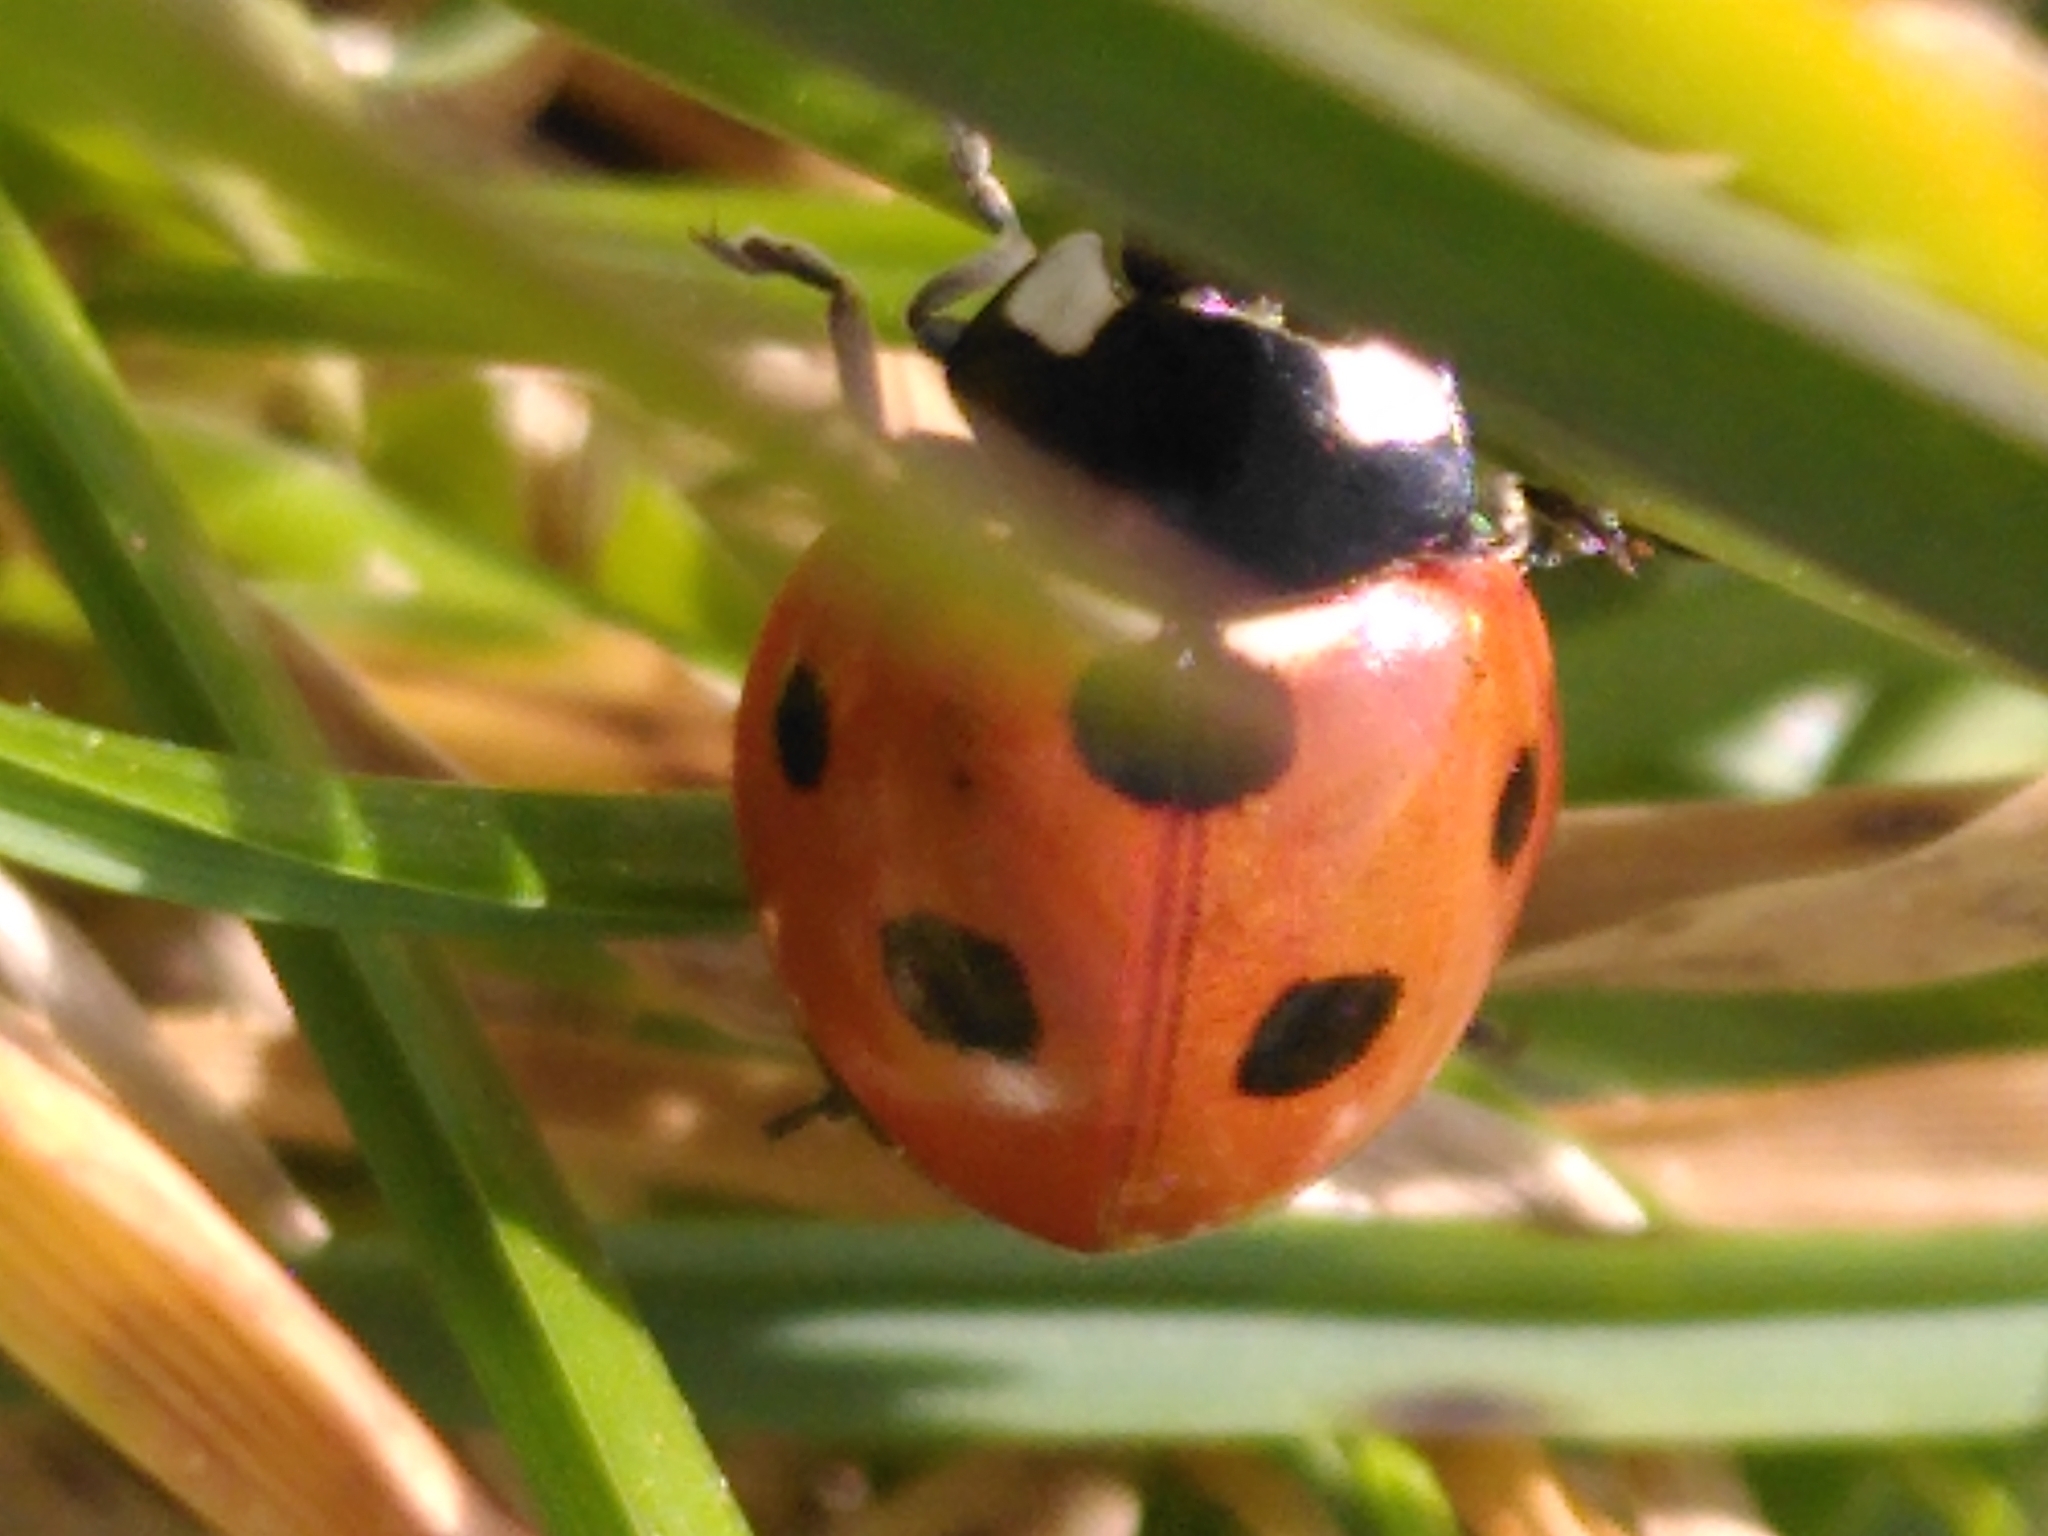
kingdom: Animalia
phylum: Arthropoda
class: Insecta
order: Coleoptera
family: Coccinellidae
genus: Coccinella
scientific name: Coccinella septempunctata
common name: Sevenspotted lady beetle
